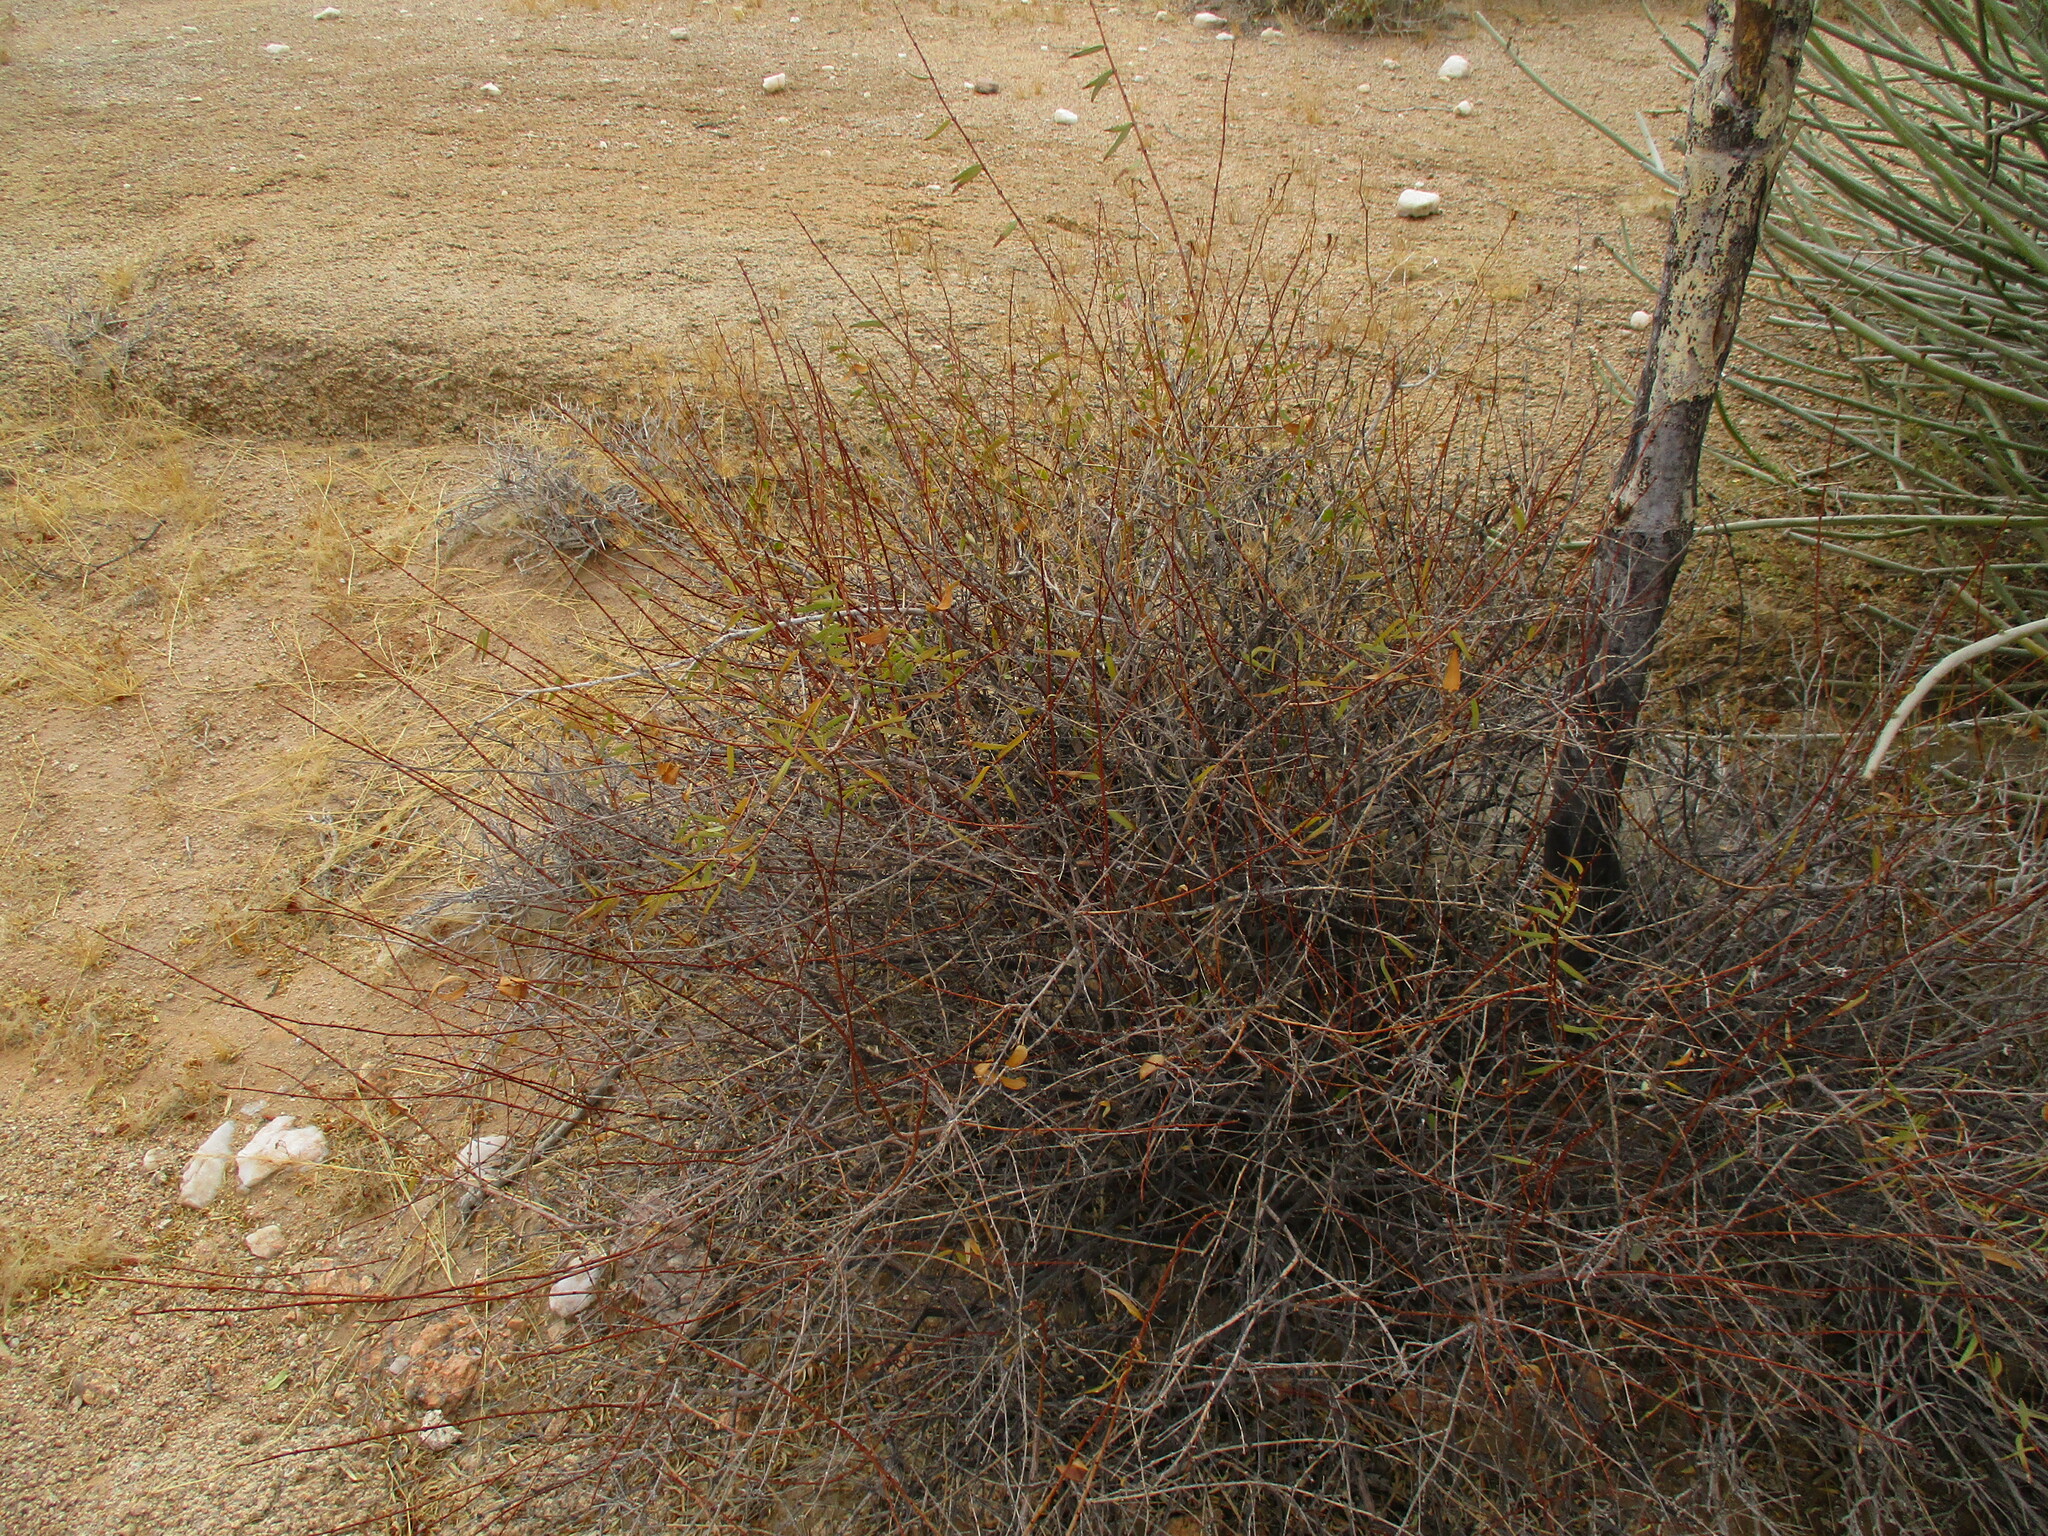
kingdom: Plantae
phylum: Tracheophyta
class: Magnoliopsida
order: Gentianales
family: Apocynaceae
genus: Cryptolepis
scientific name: Cryptolepis decidua
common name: Jackalplant
